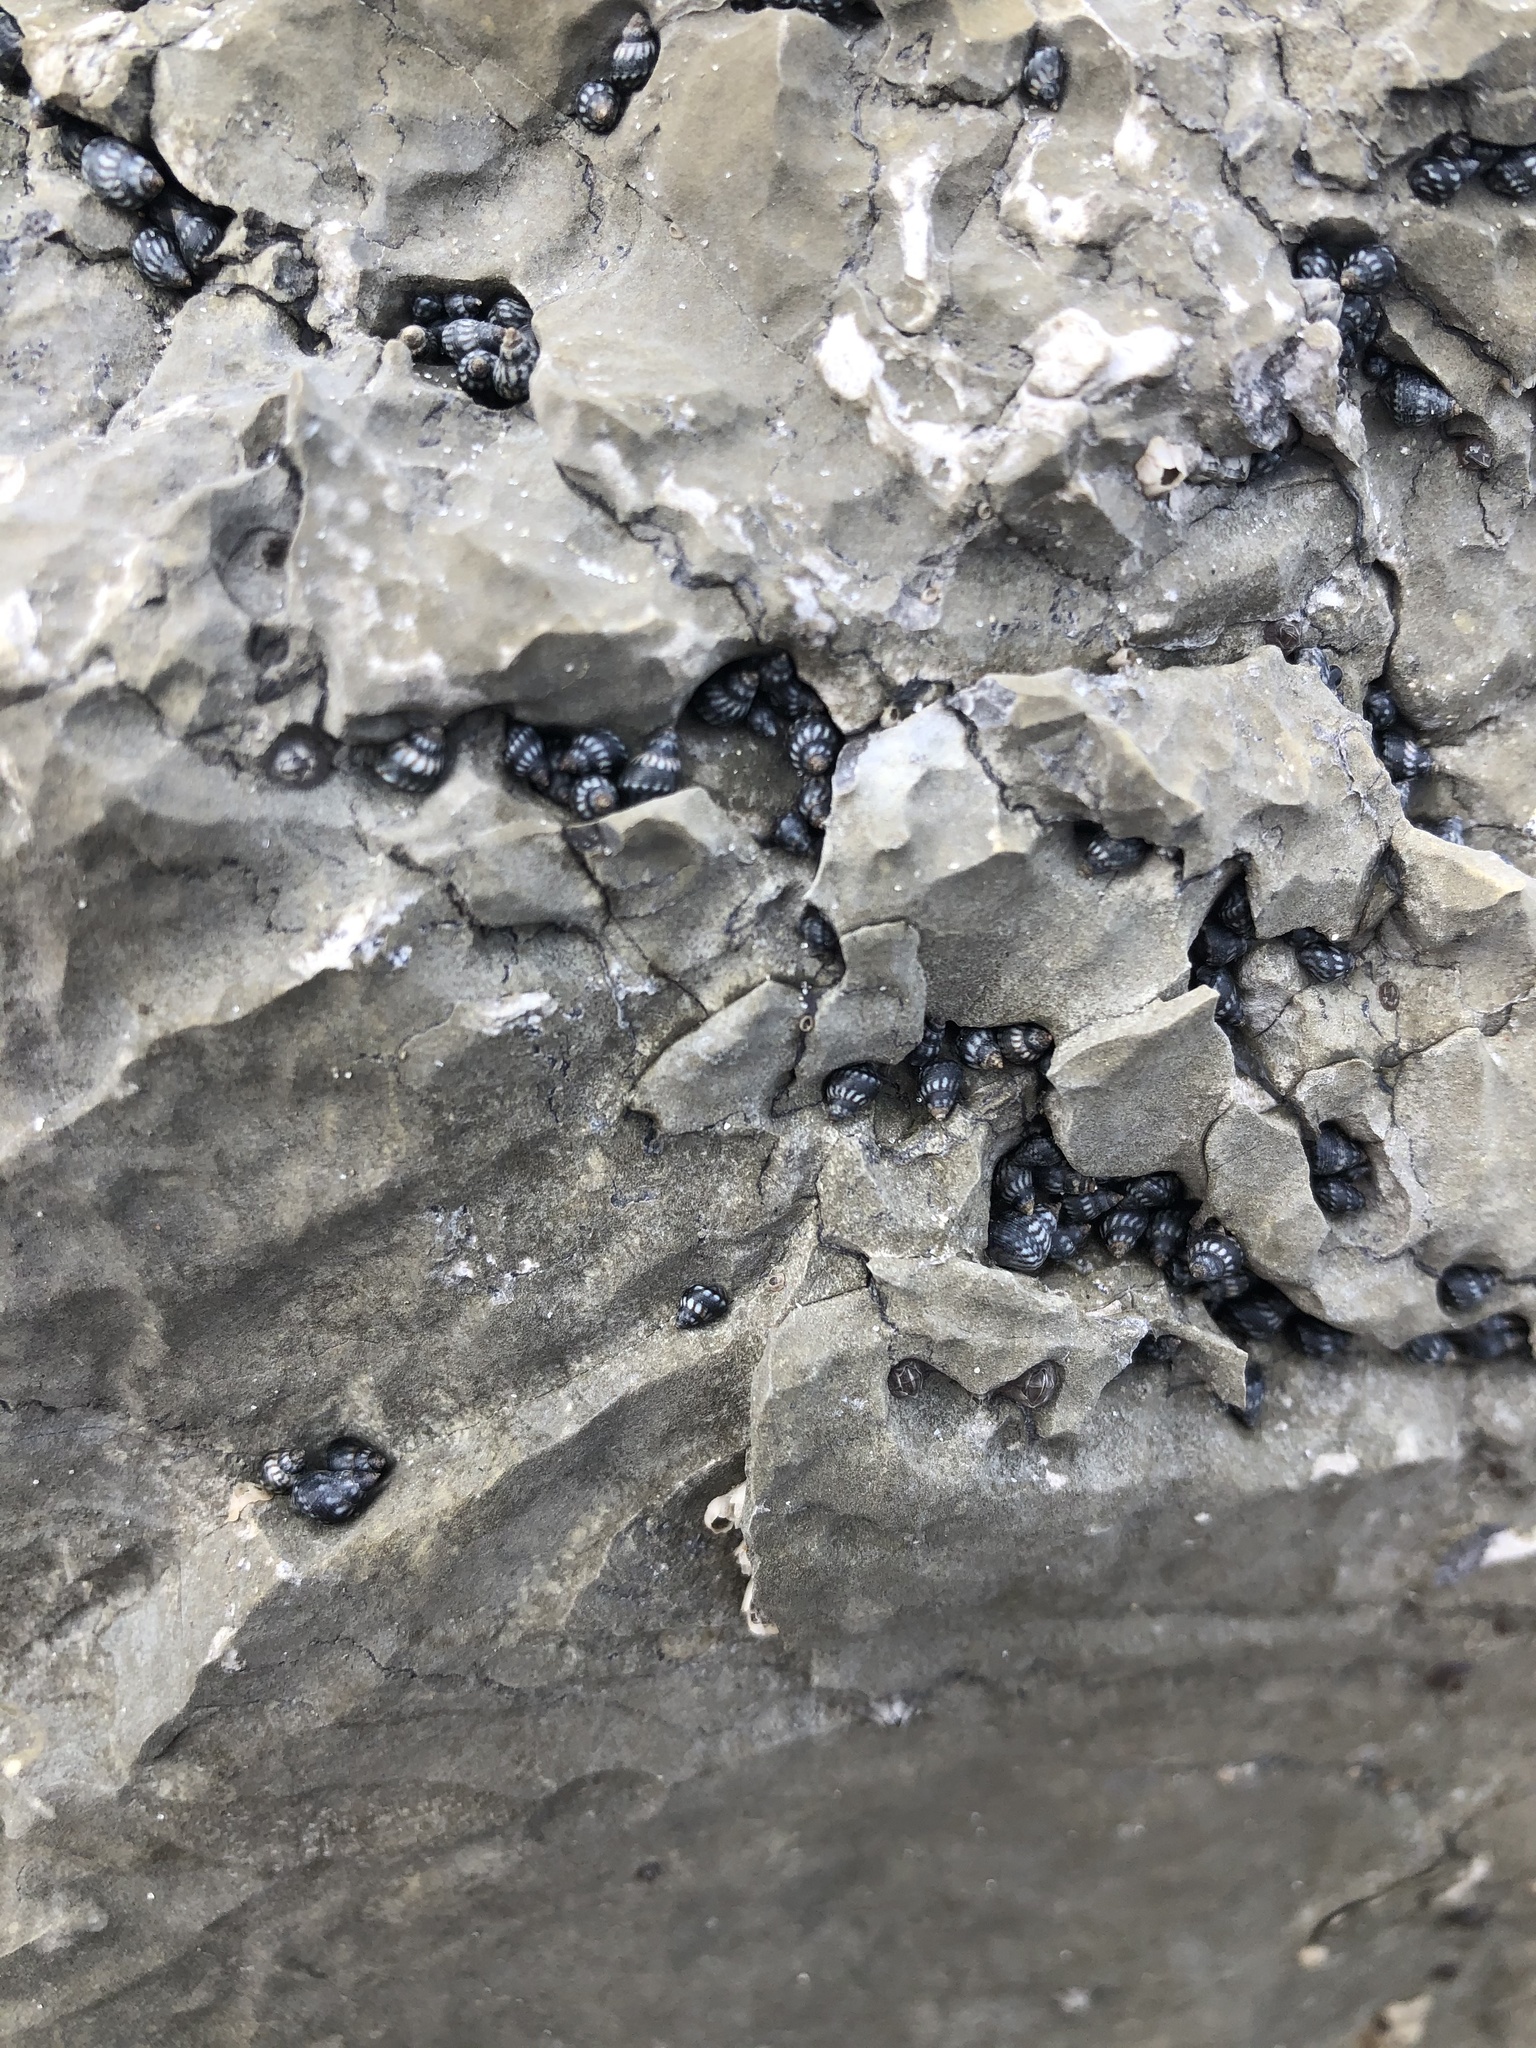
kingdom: Animalia
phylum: Mollusca
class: Gastropoda
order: Littorinimorpha
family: Littorinidae
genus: Echinolittorina
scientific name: Echinolittorina placida
